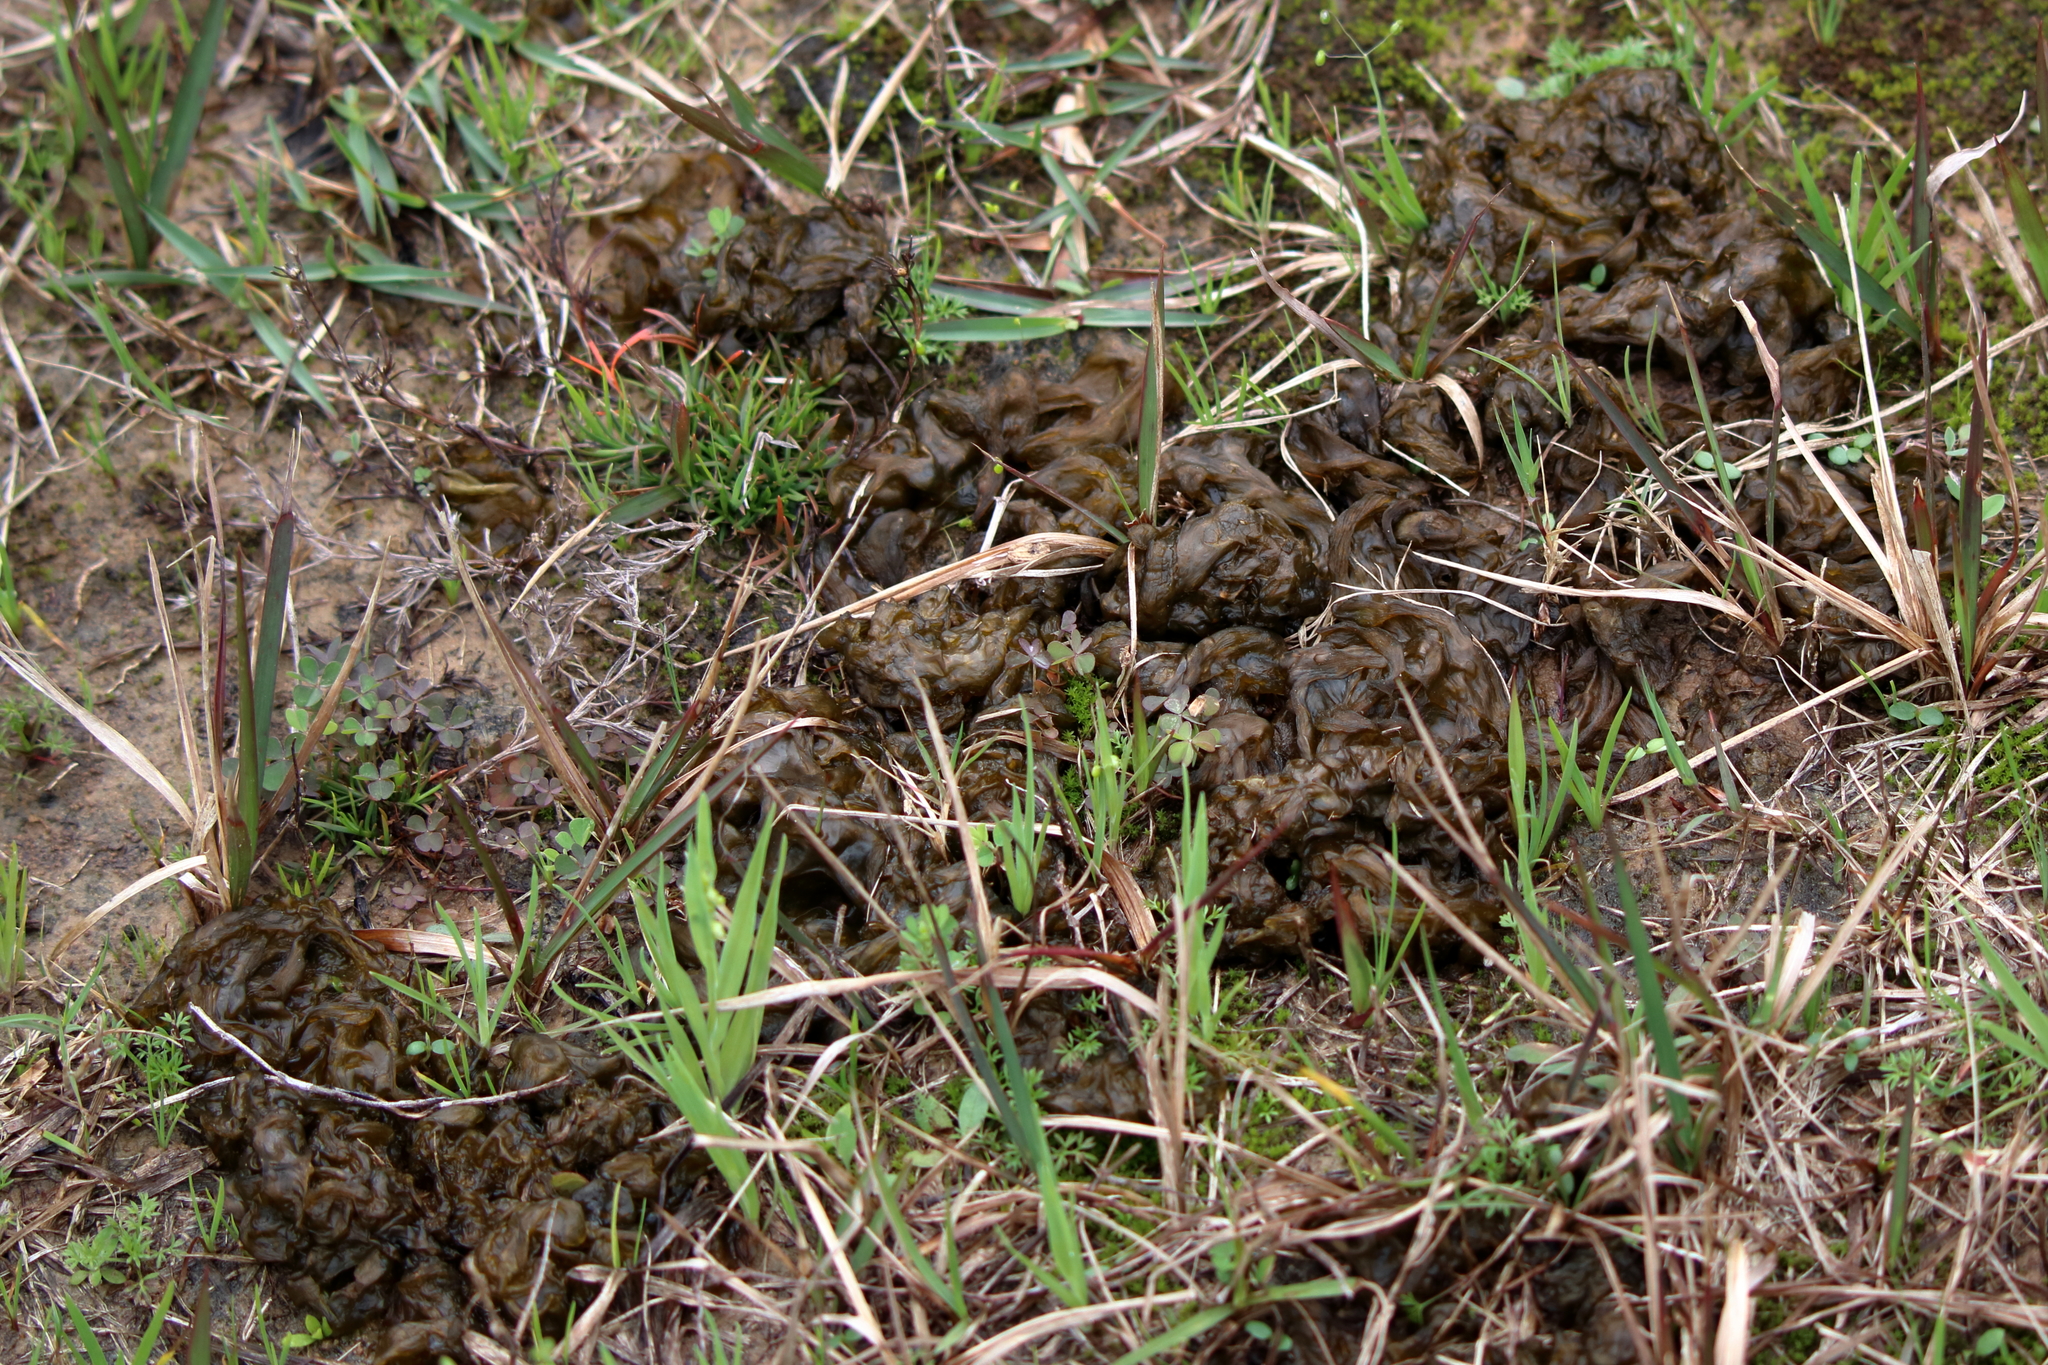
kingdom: Bacteria
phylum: Cyanobacteria
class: Cyanobacteriia
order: Cyanobacteriales
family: Nostocaceae
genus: Nostoc
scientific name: Nostoc commune
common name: Star jelly
